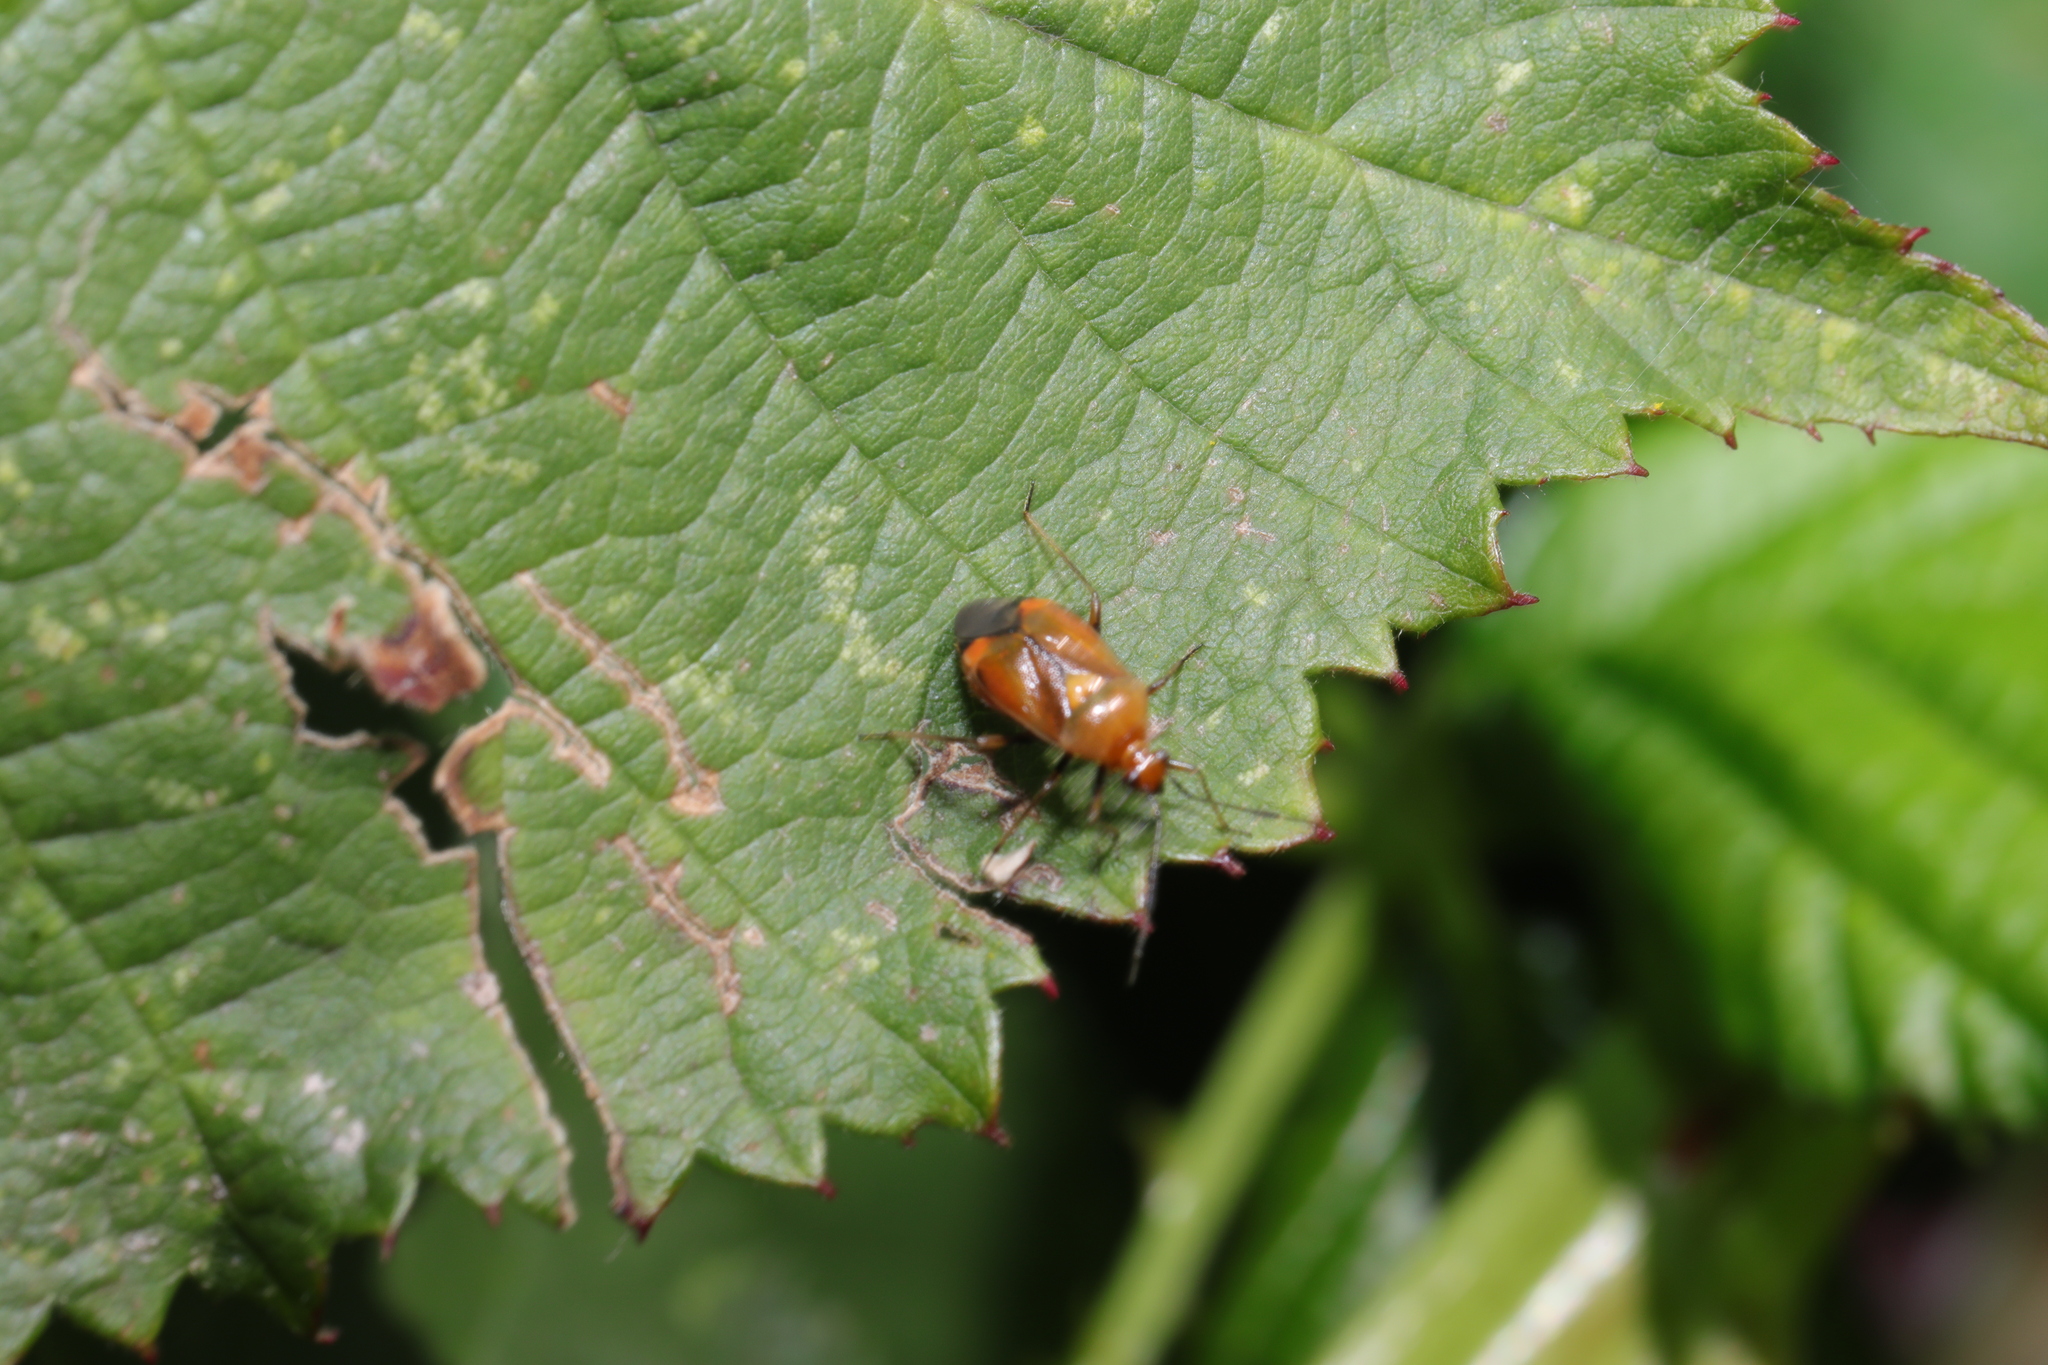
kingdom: Animalia
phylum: Arthropoda
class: Insecta
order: Hemiptera
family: Miridae
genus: Deraeocoris
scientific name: Deraeocoris ruber
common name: Plant bug
